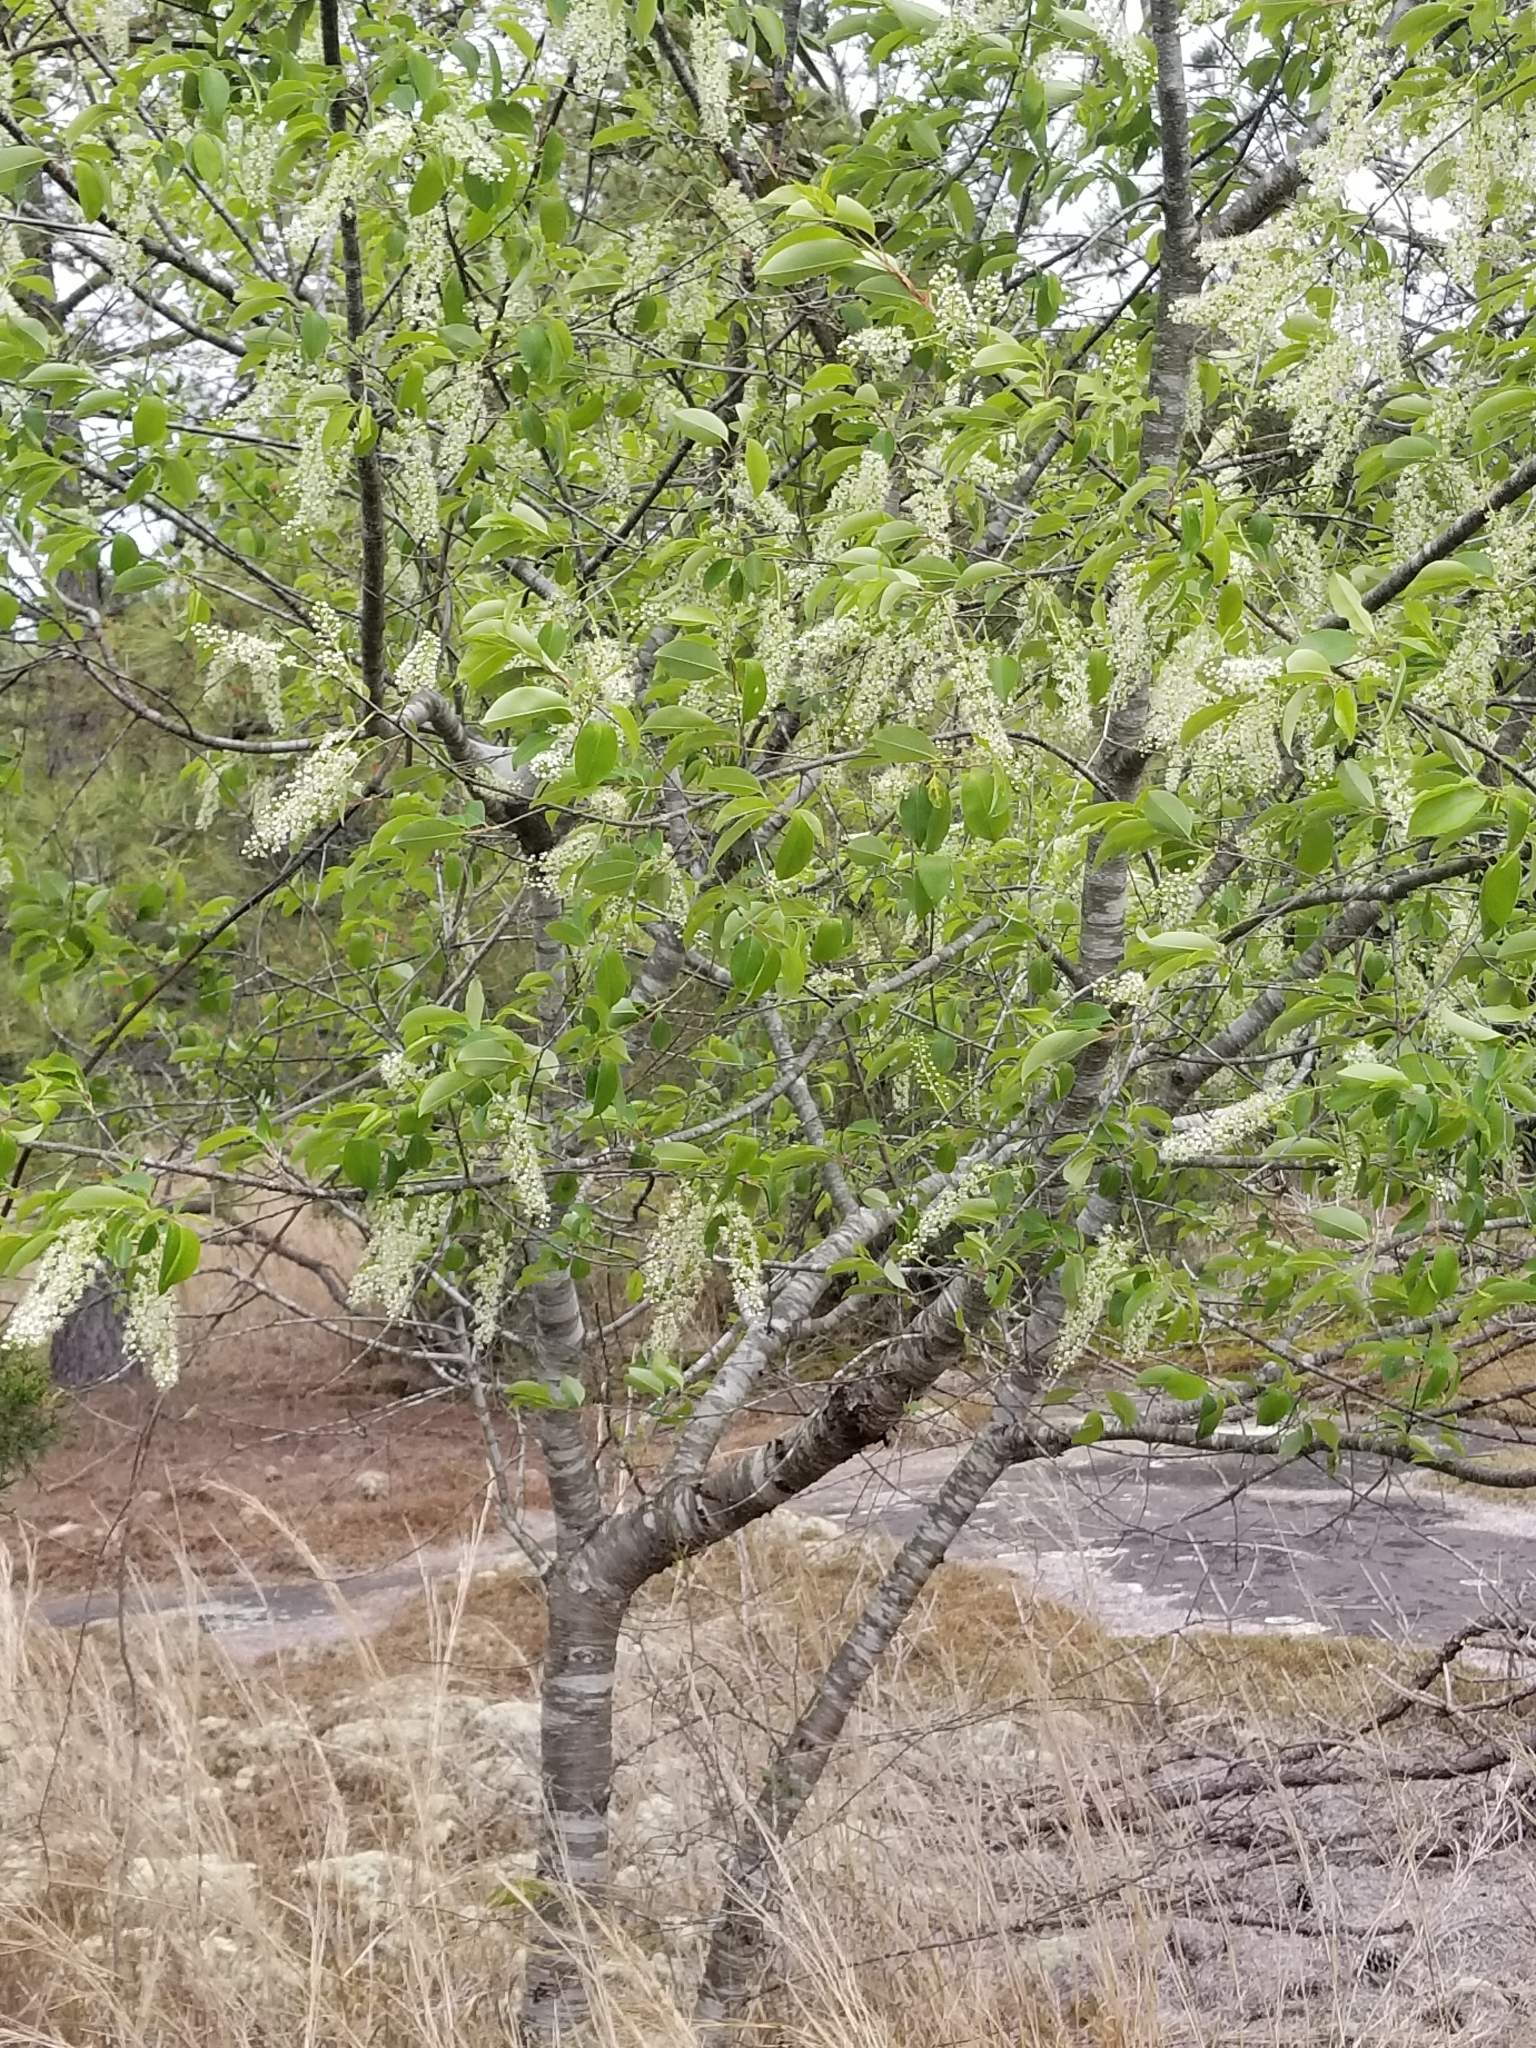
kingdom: Plantae
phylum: Tracheophyta
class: Magnoliopsida
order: Rosales
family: Rosaceae
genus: Prunus
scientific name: Prunus serotina
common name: Black cherry
